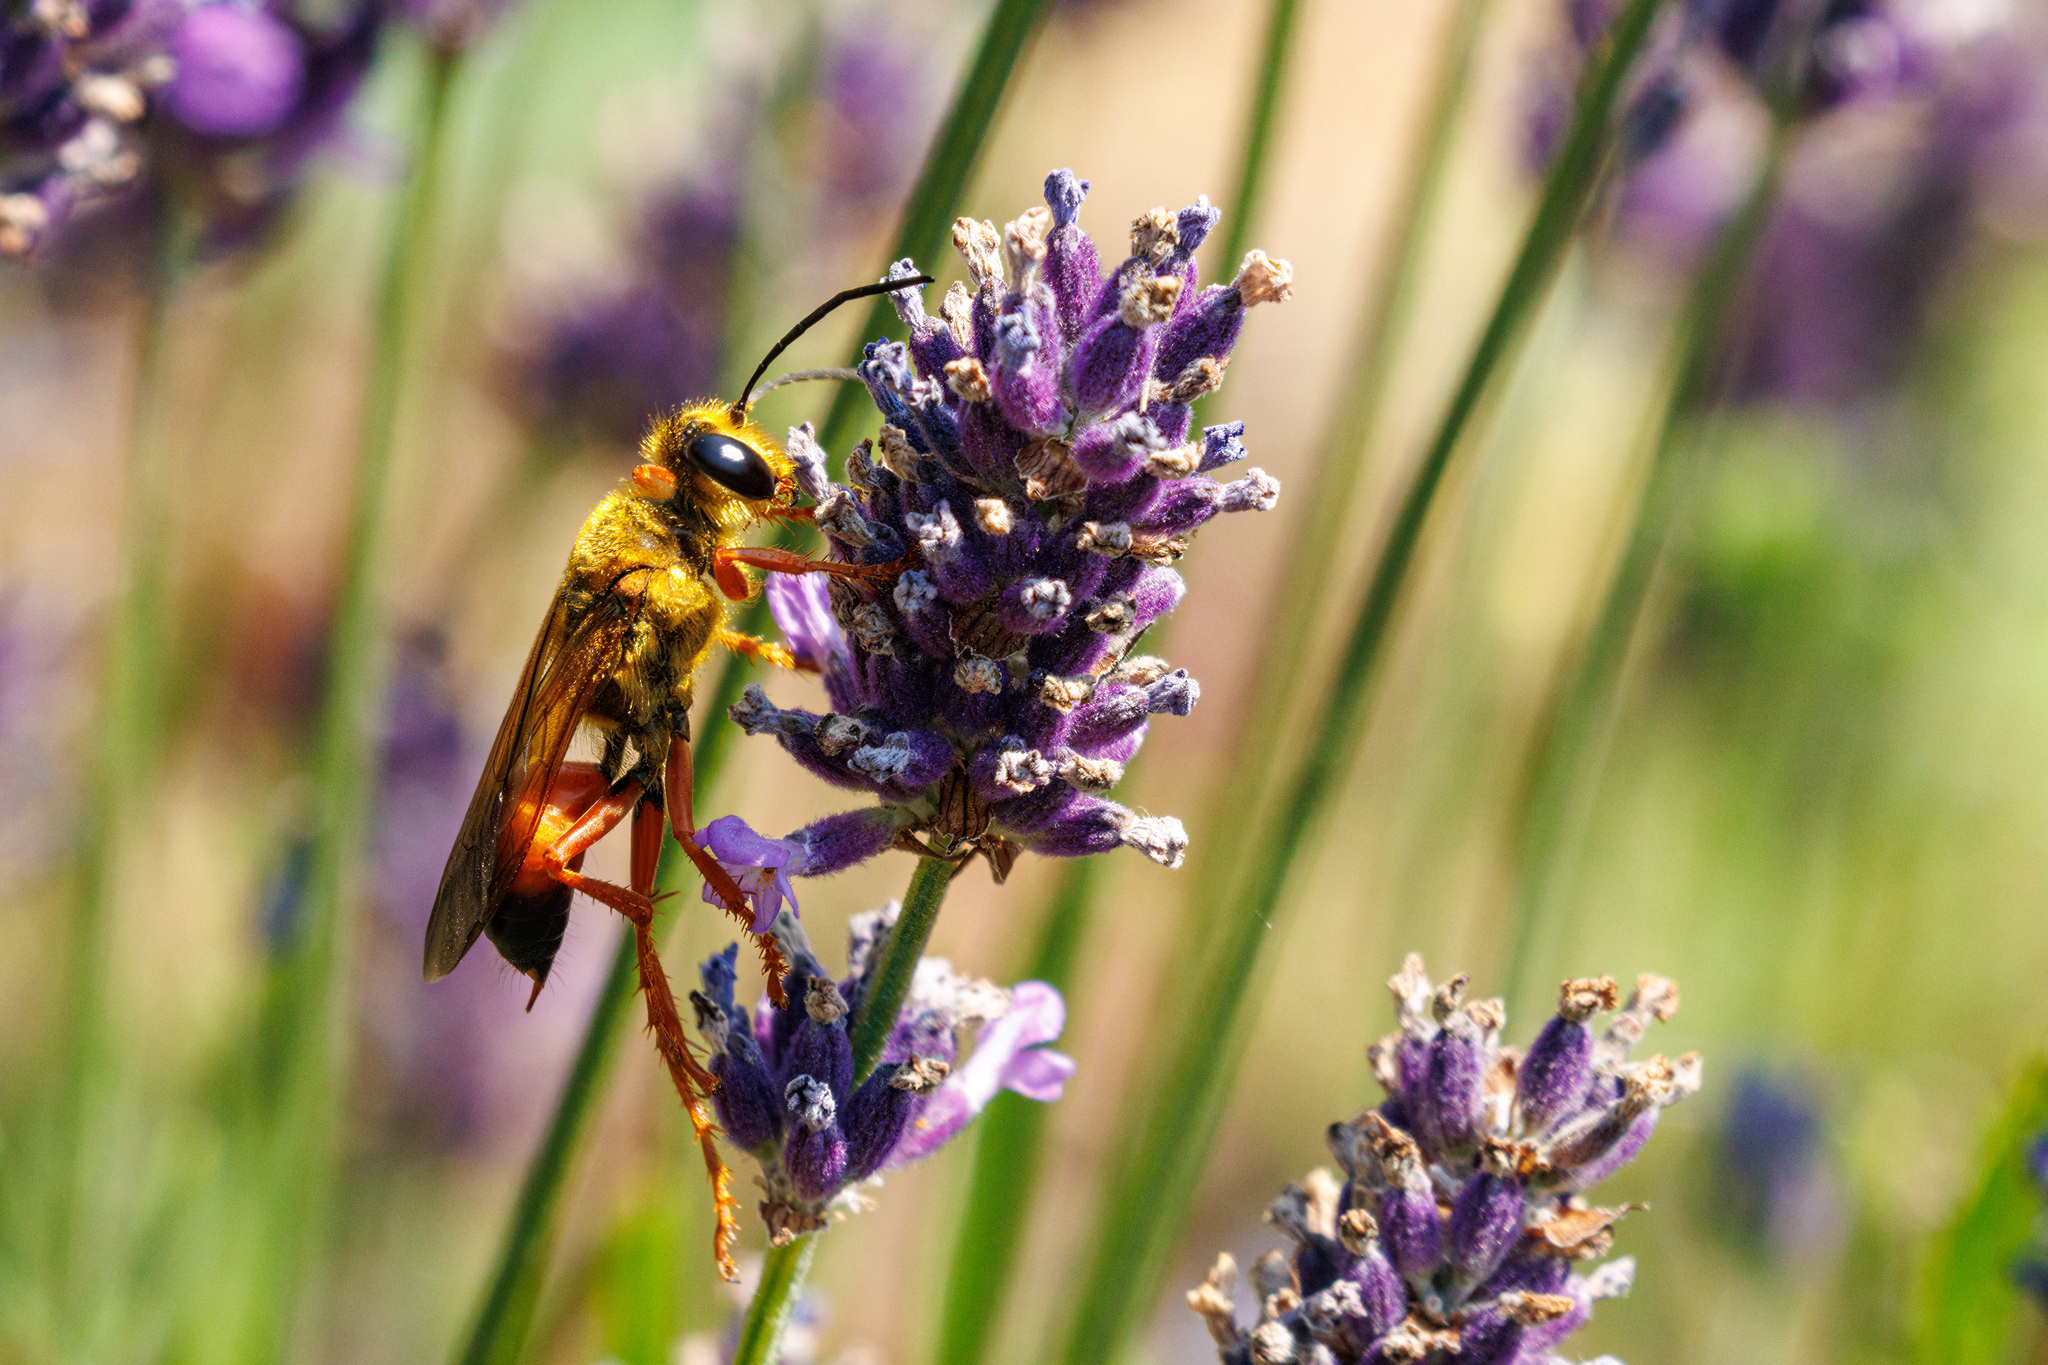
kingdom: Animalia
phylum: Arthropoda
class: Insecta
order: Hymenoptera
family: Sphecidae
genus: Sphex
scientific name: Sphex ichneumoneus
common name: Great golden digger wasp
